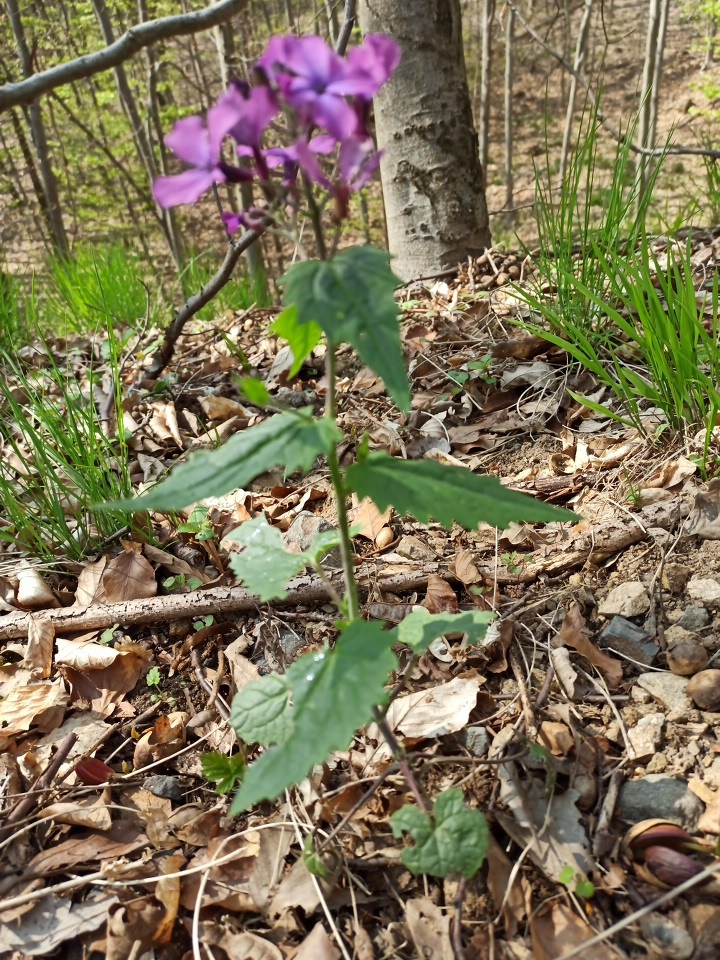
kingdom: Plantae
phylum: Tracheophyta
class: Magnoliopsida
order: Brassicales
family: Brassicaceae
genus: Lunaria
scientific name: Lunaria annua
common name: Honesty
